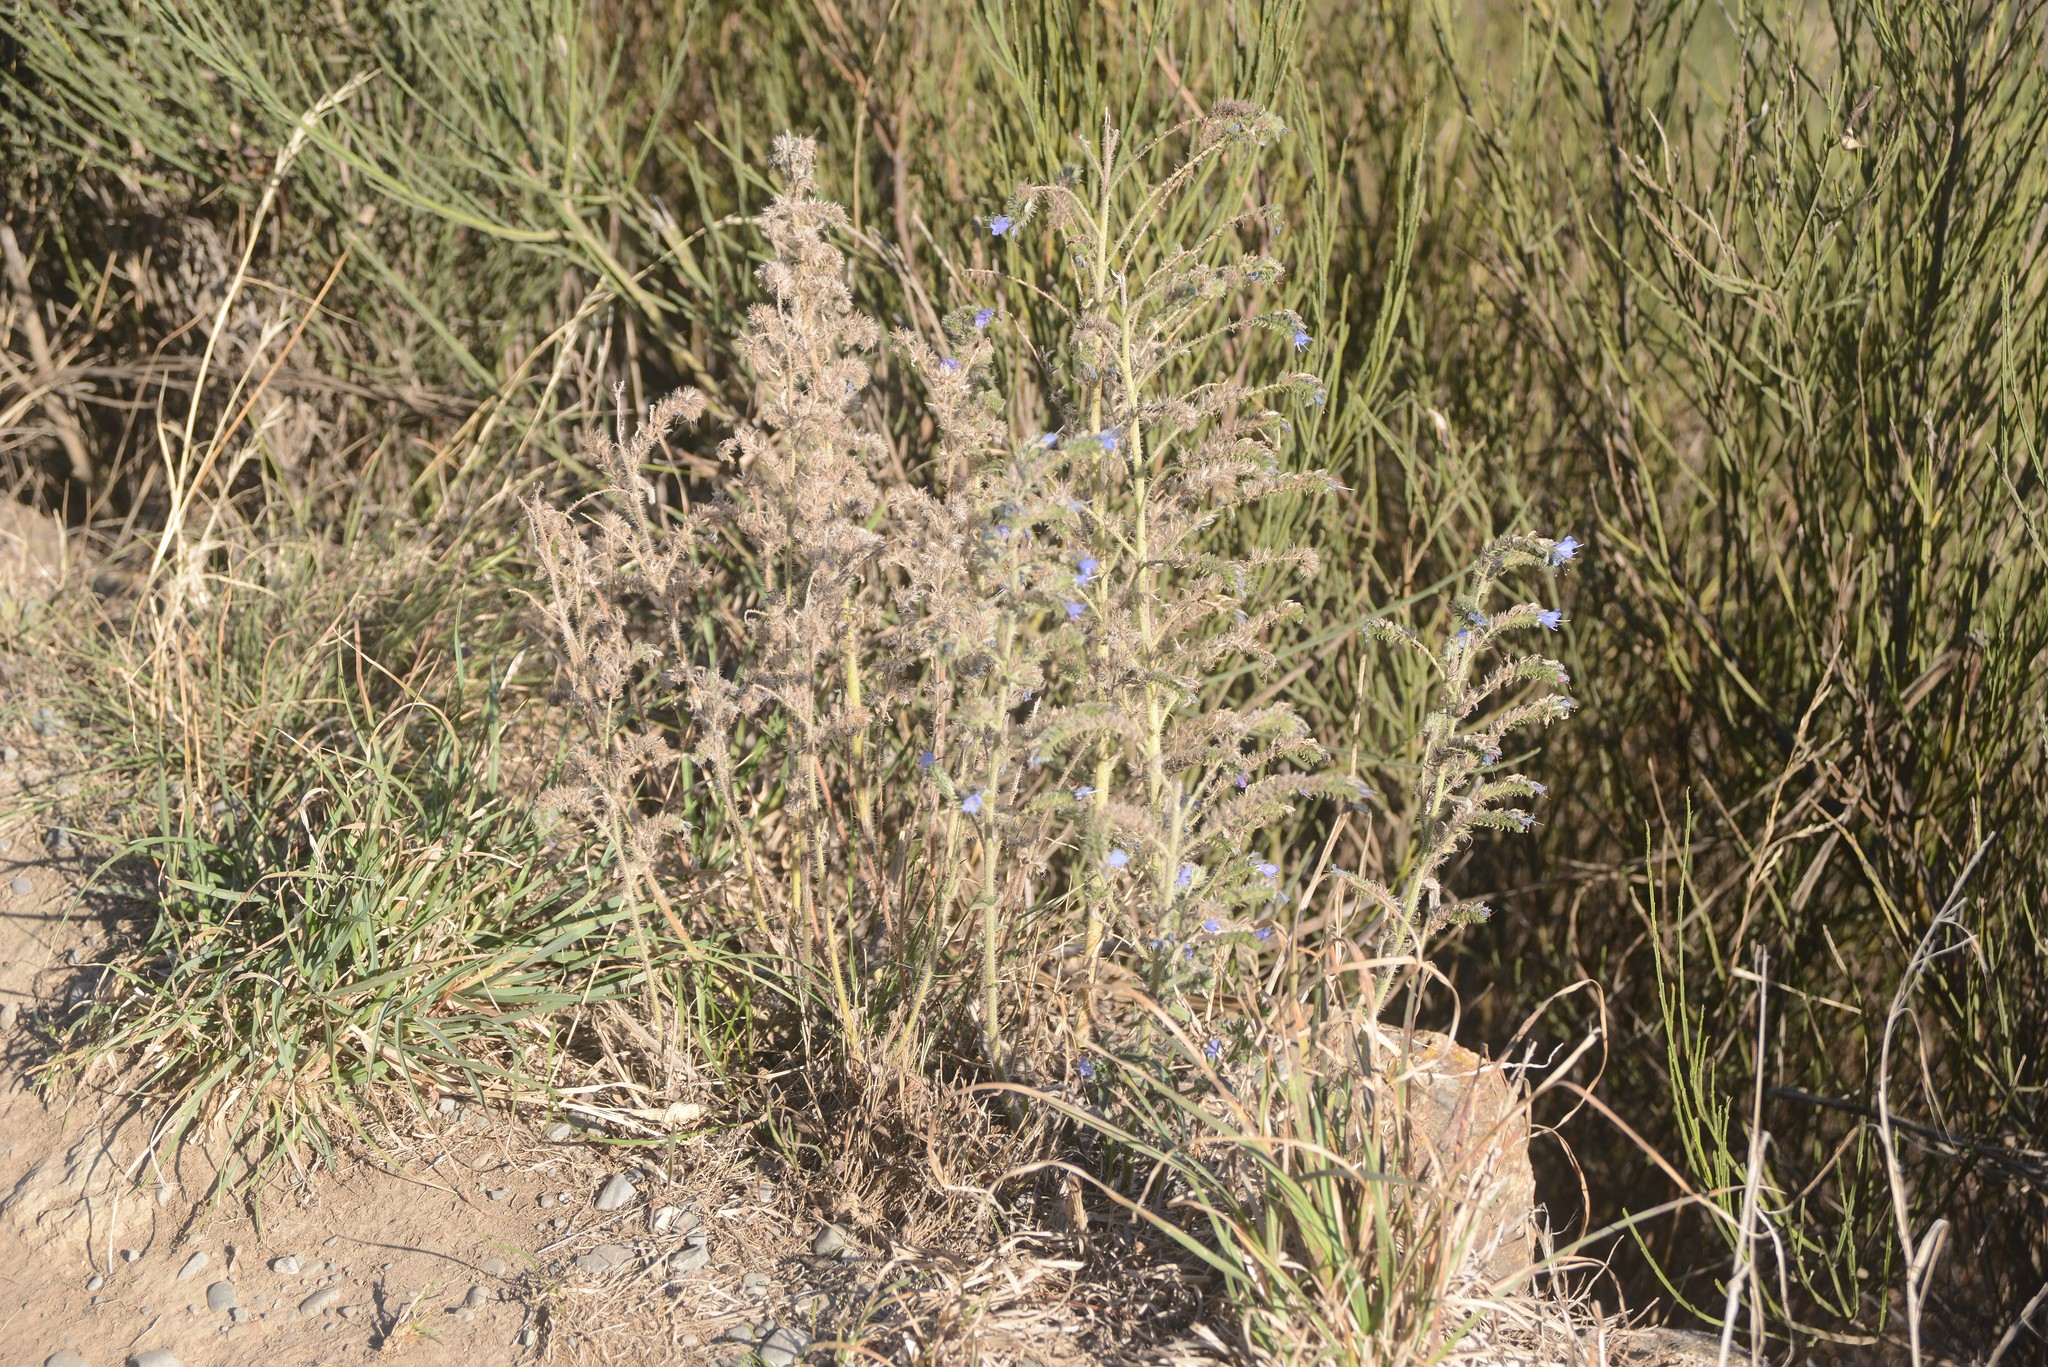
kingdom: Plantae
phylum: Tracheophyta
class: Magnoliopsida
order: Boraginales
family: Boraginaceae
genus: Echium
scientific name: Echium vulgare
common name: Common viper's bugloss
